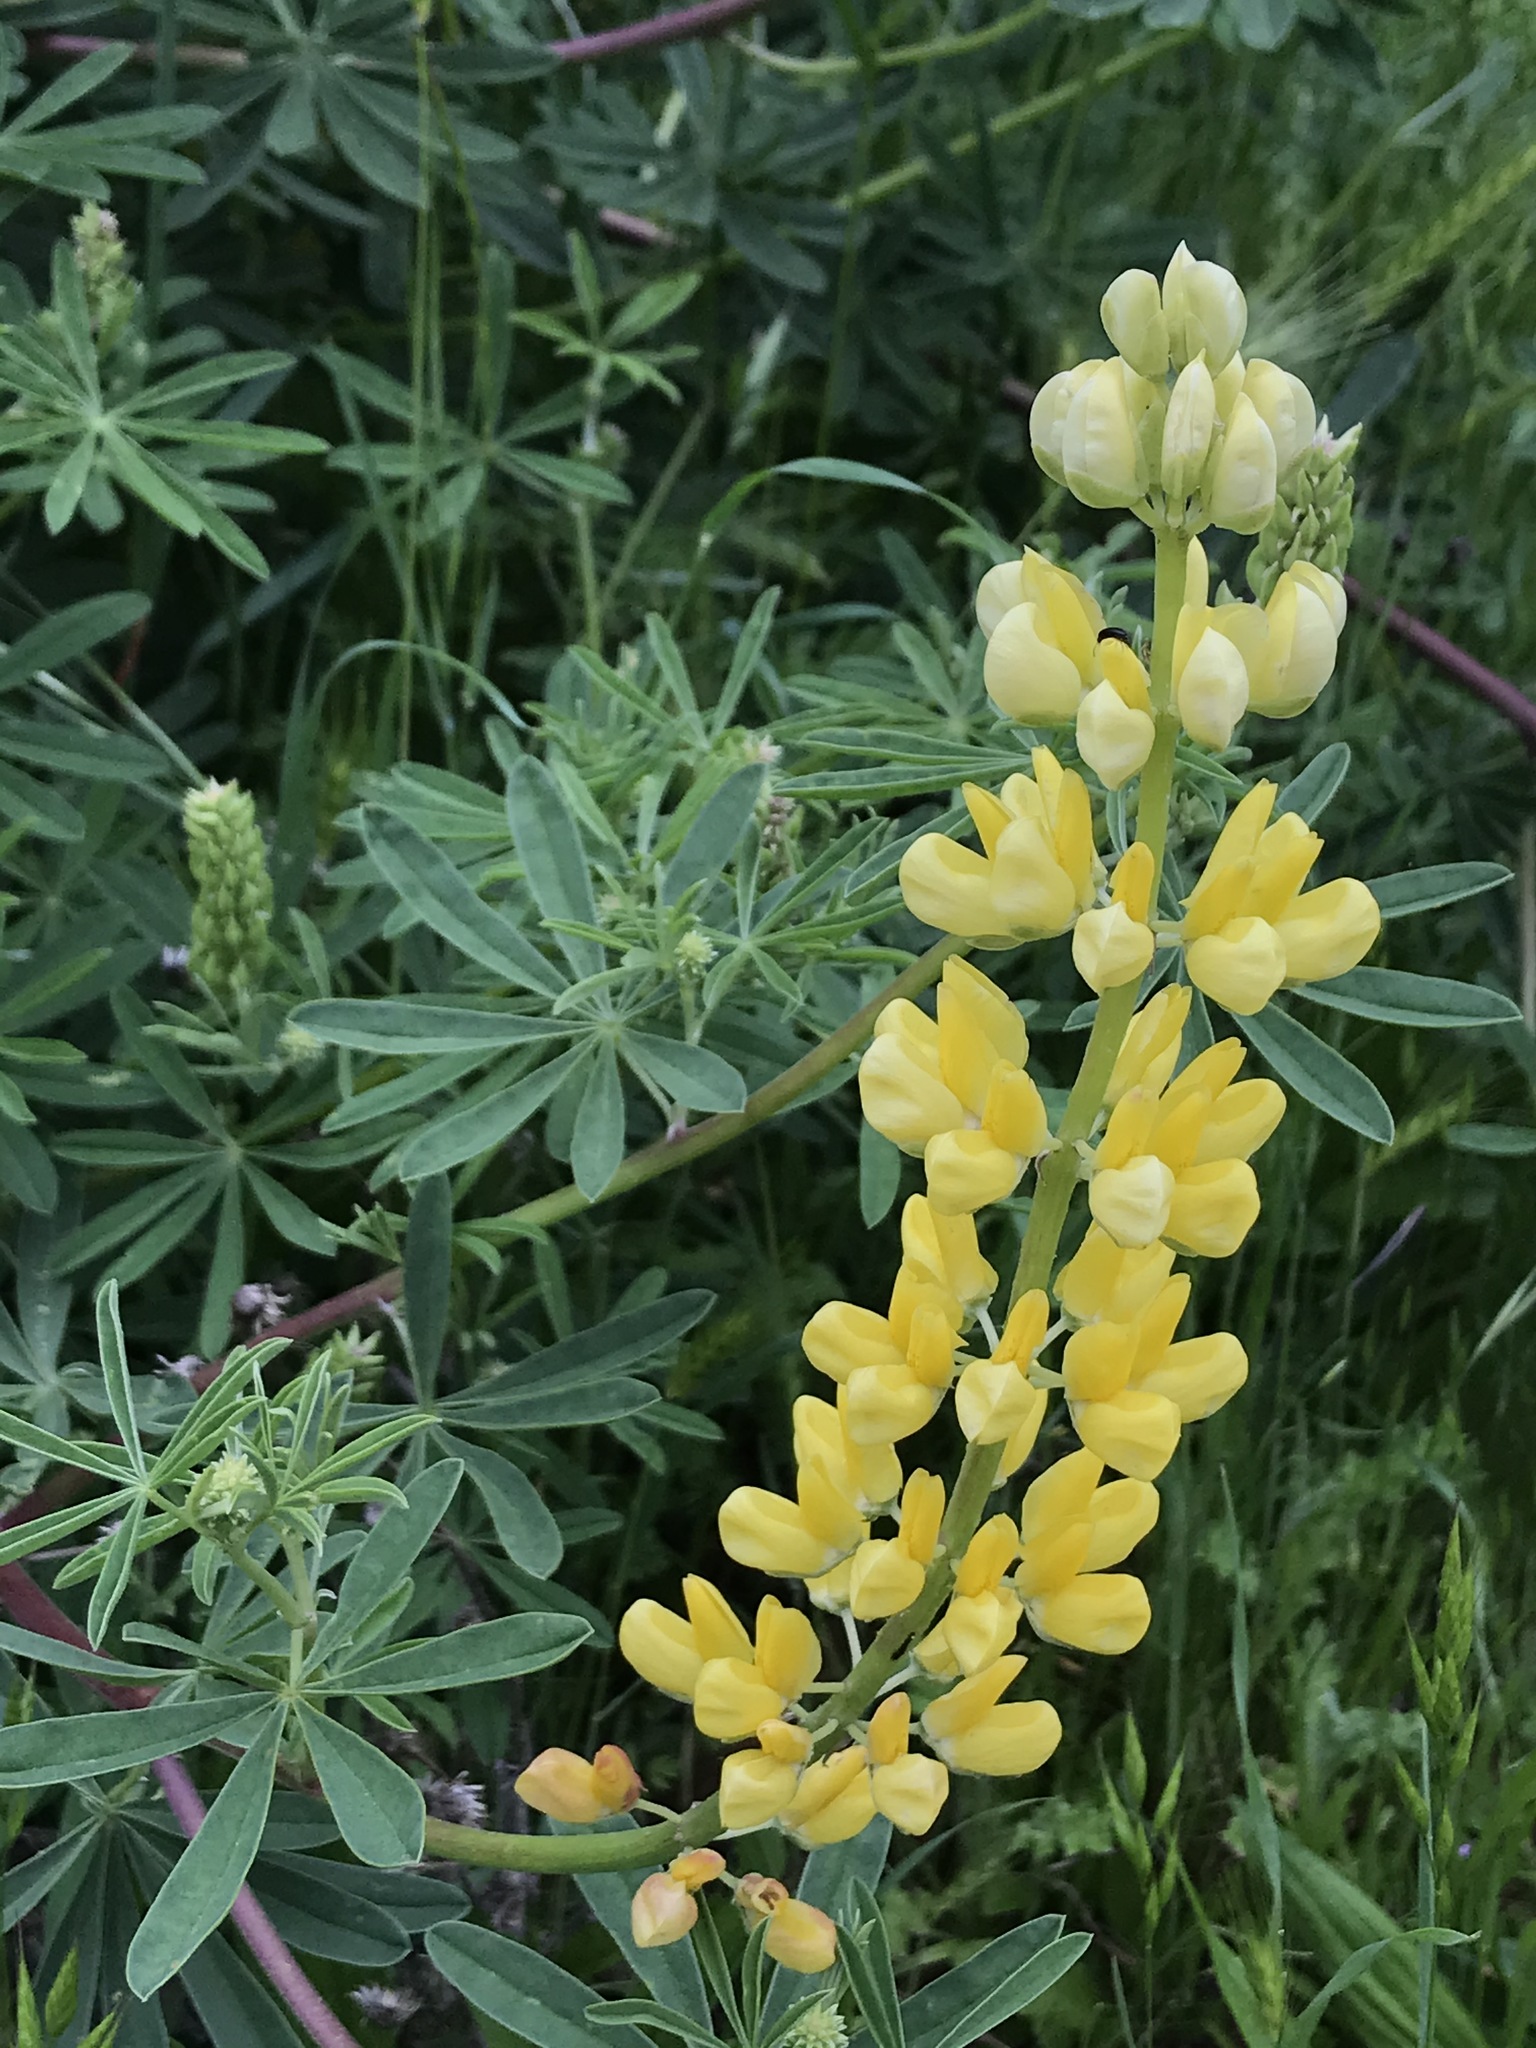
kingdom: Plantae
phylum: Tracheophyta
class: Magnoliopsida
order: Fabales
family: Fabaceae
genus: Lupinus
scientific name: Lupinus arboreus
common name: Yellow bush lupine
